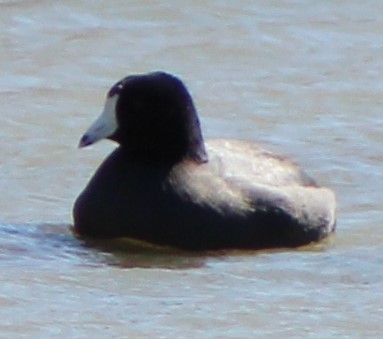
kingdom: Animalia
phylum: Chordata
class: Aves
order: Gruiformes
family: Rallidae
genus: Fulica
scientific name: Fulica americana
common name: American coot
